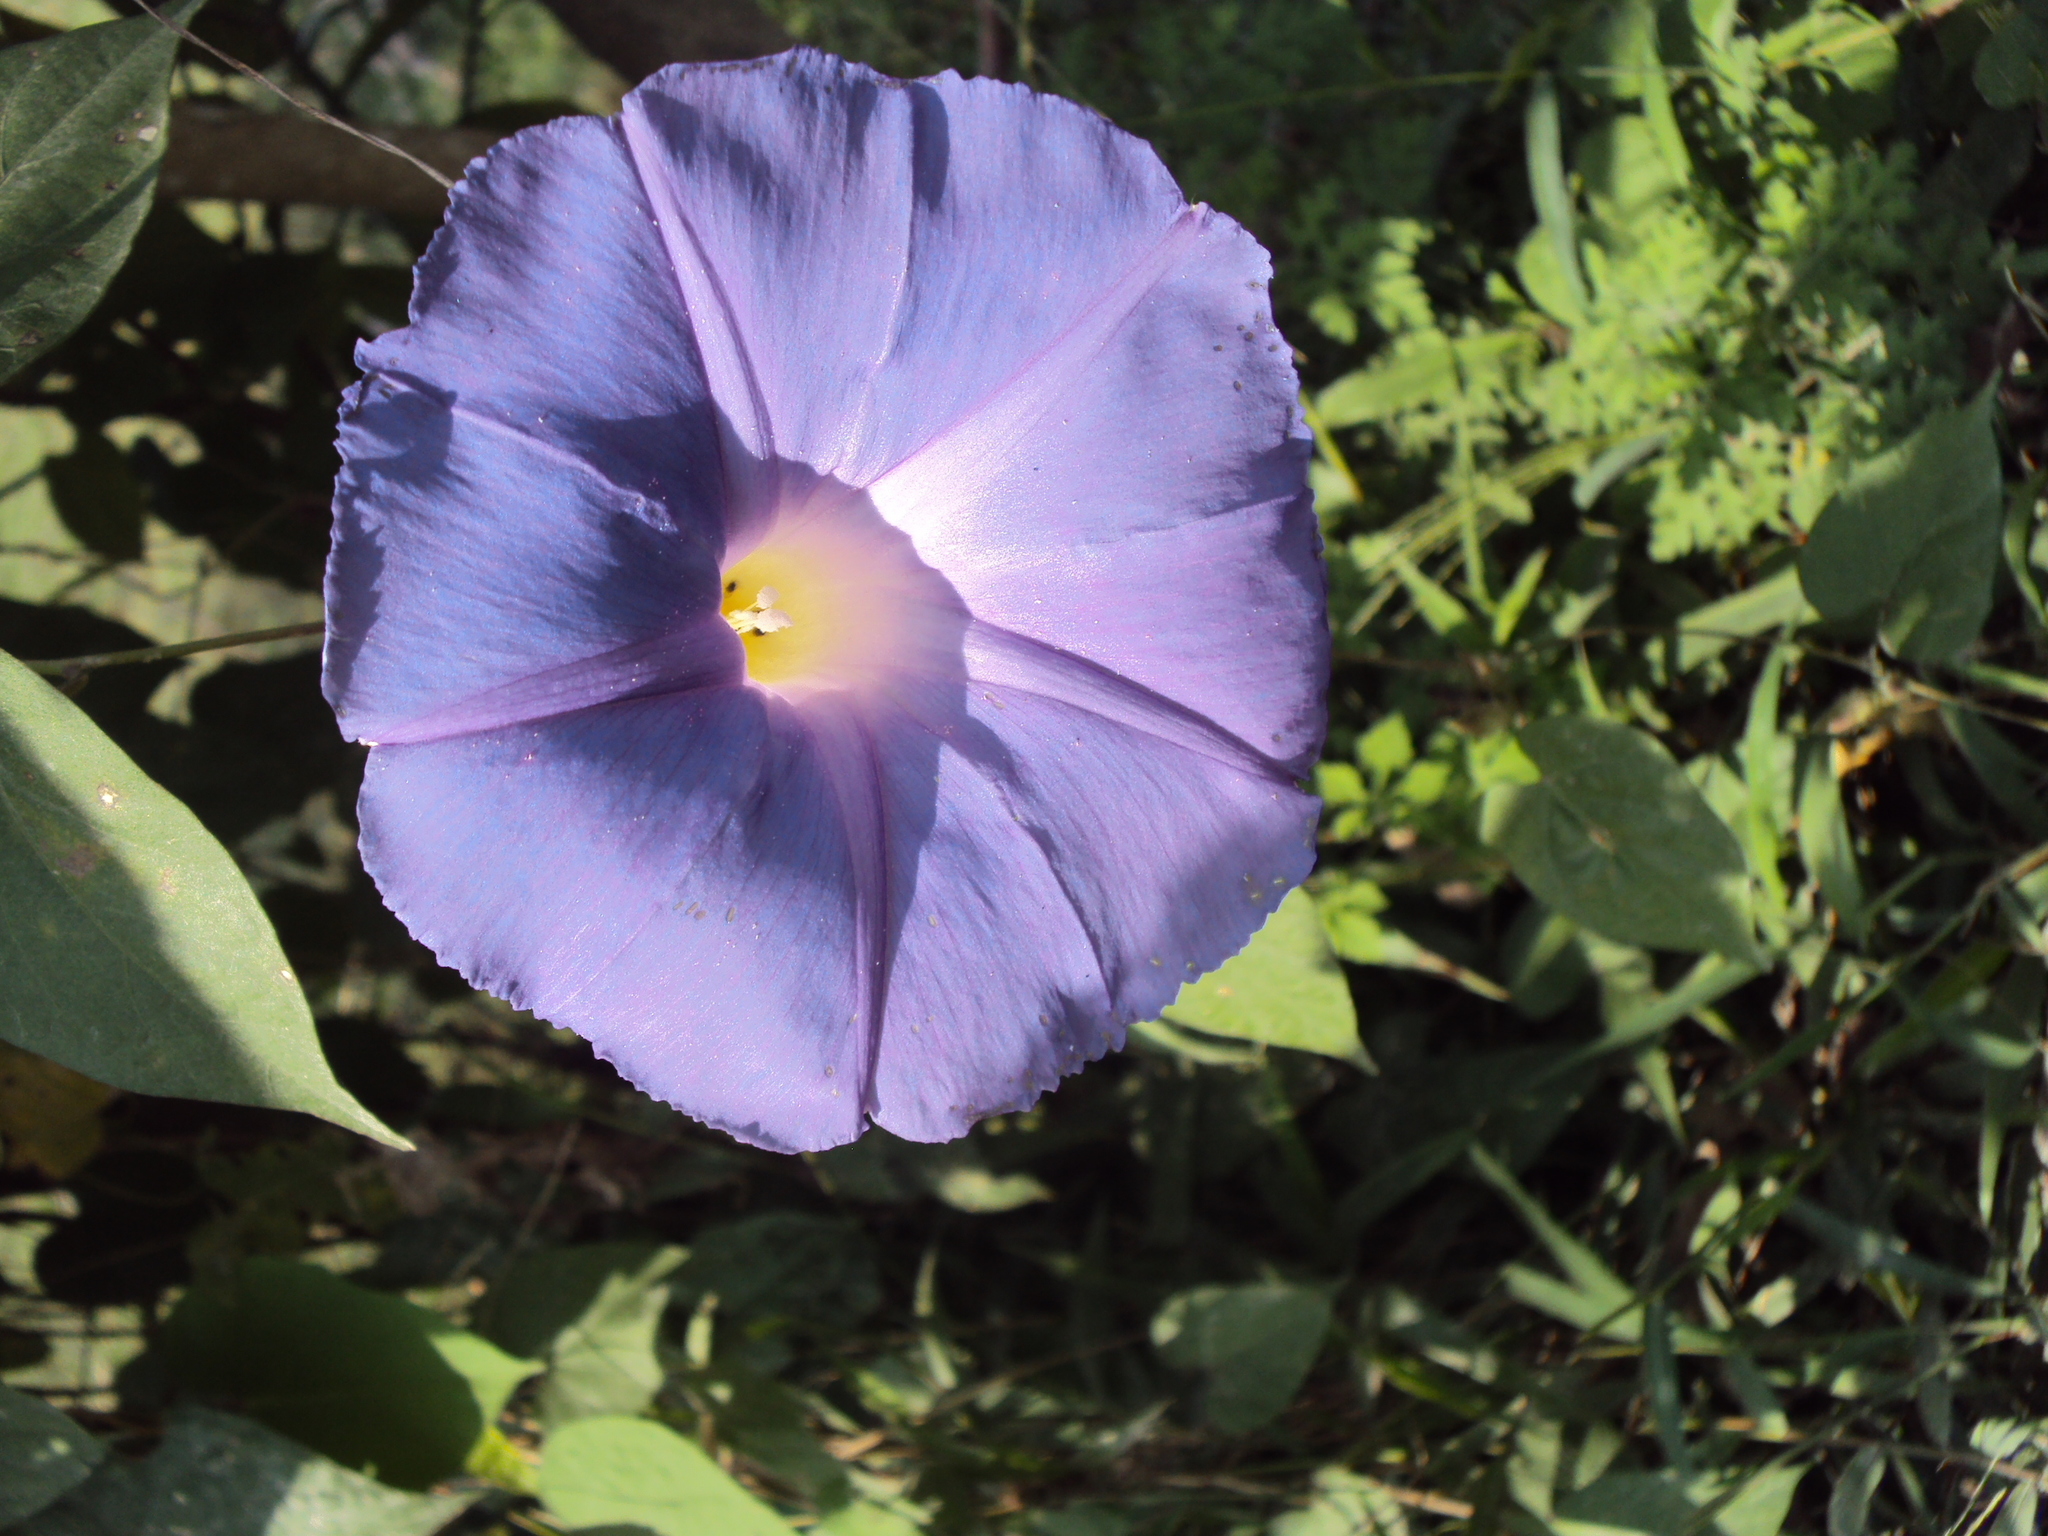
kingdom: Plantae
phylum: Tracheophyta
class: Magnoliopsida
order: Solanales
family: Convolvulaceae
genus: Ipomoea
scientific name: Ipomoea mitchelliae
